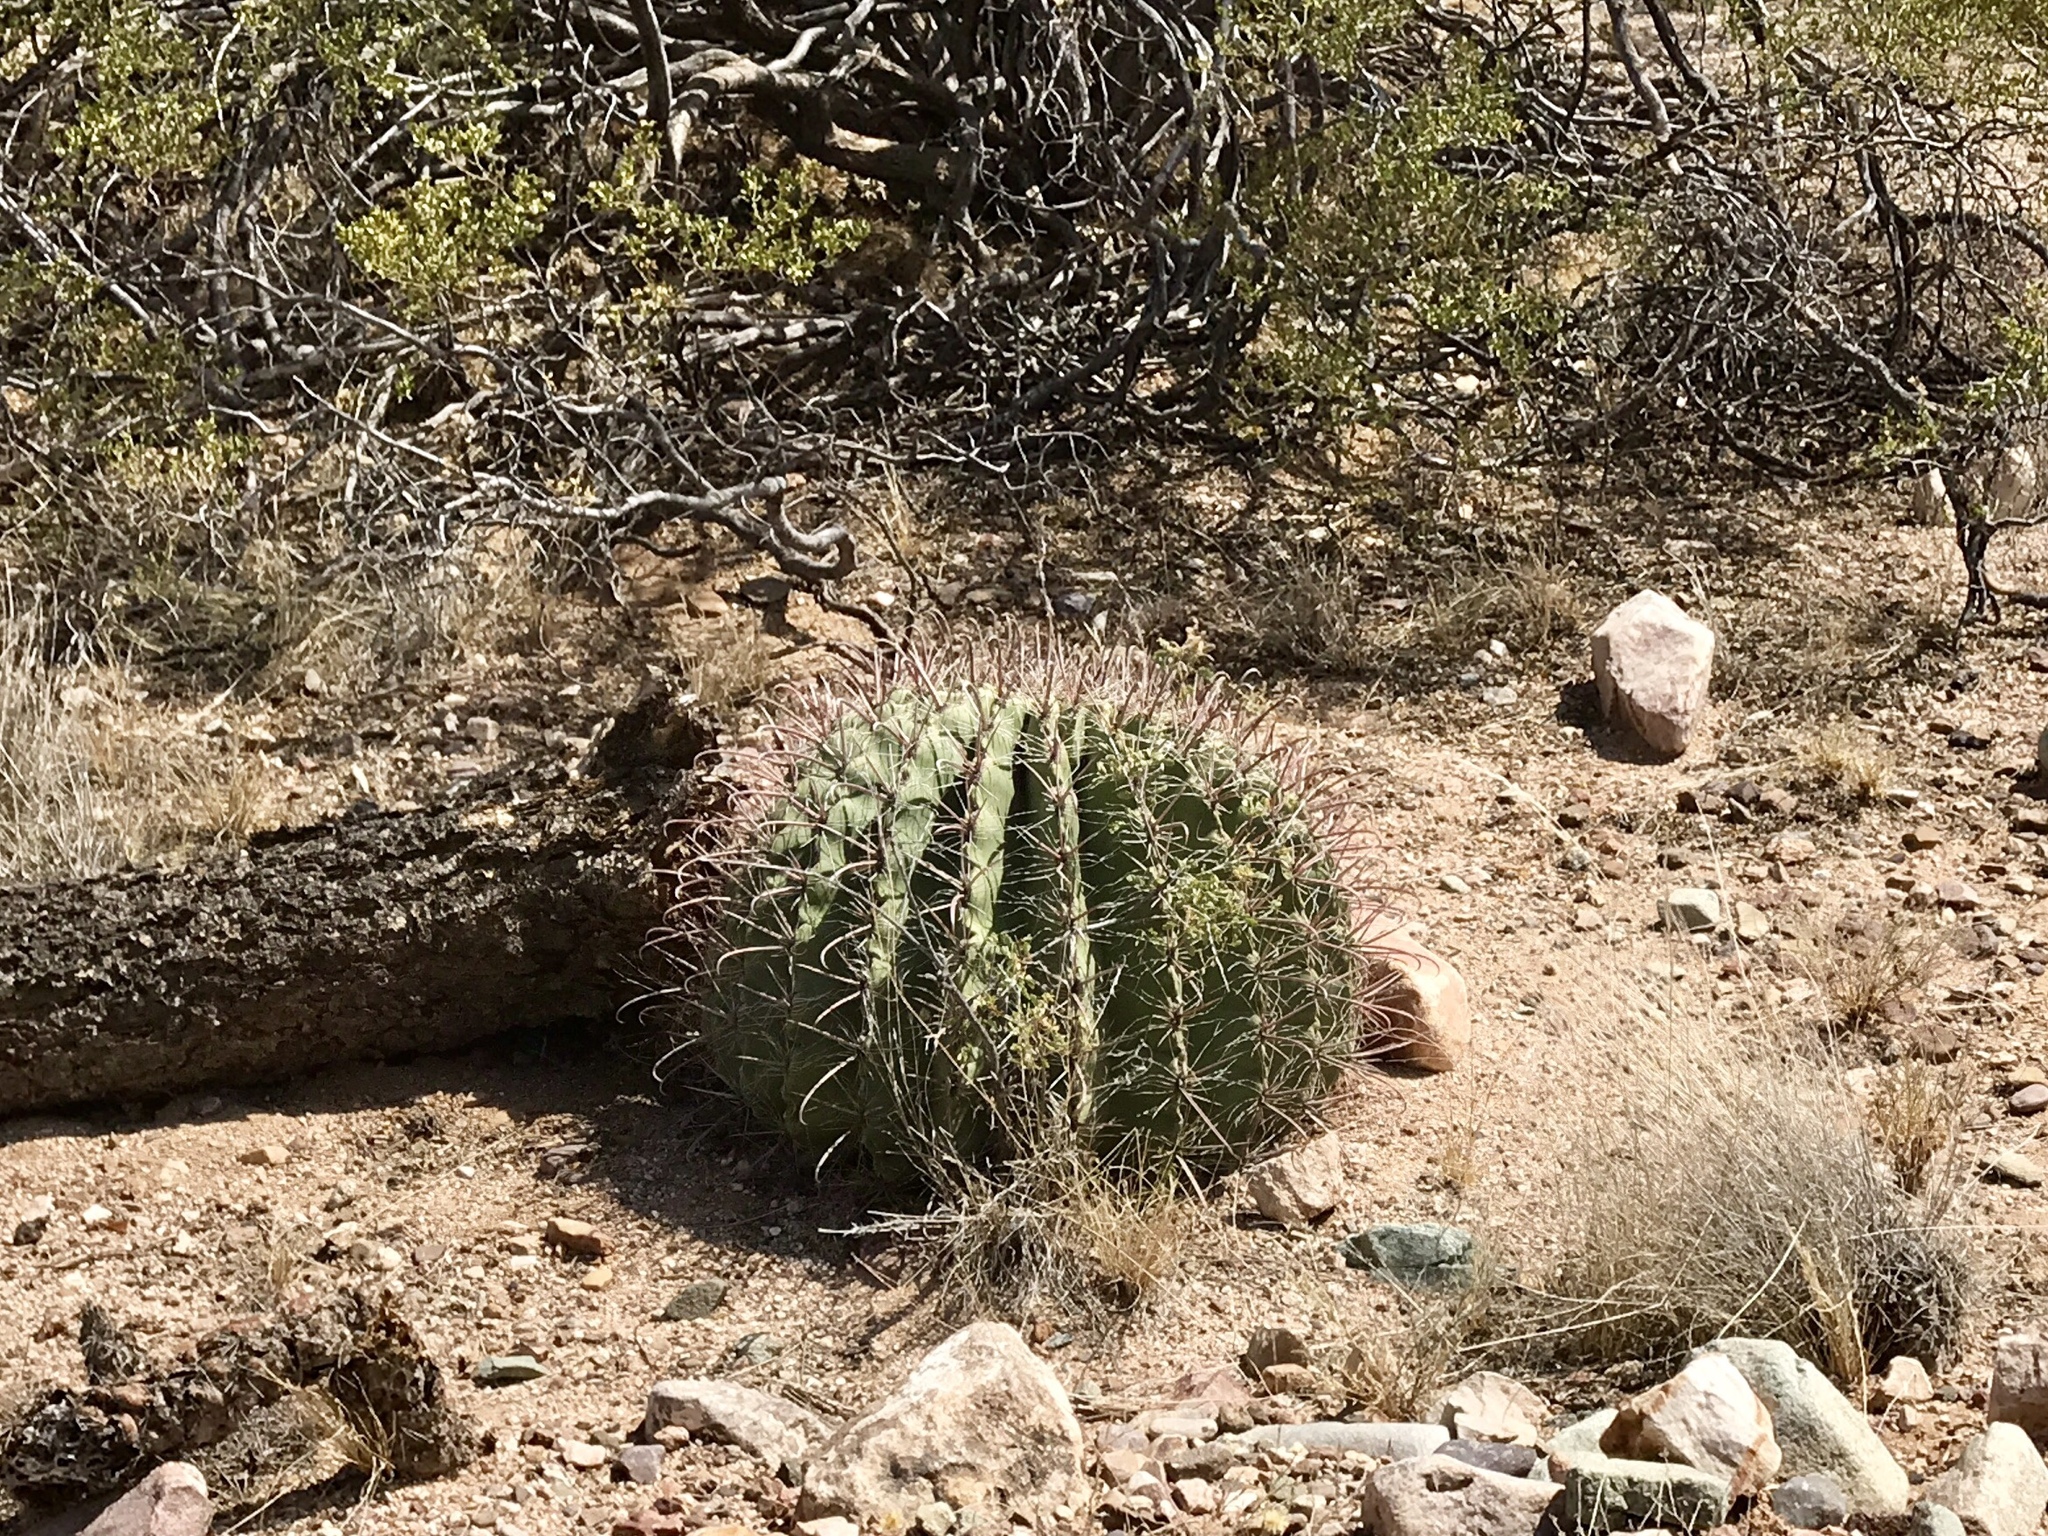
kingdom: Plantae
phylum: Tracheophyta
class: Magnoliopsida
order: Caryophyllales
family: Cactaceae
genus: Ferocactus
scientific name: Ferocactus wislizeni
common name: Candy barrel cactus
